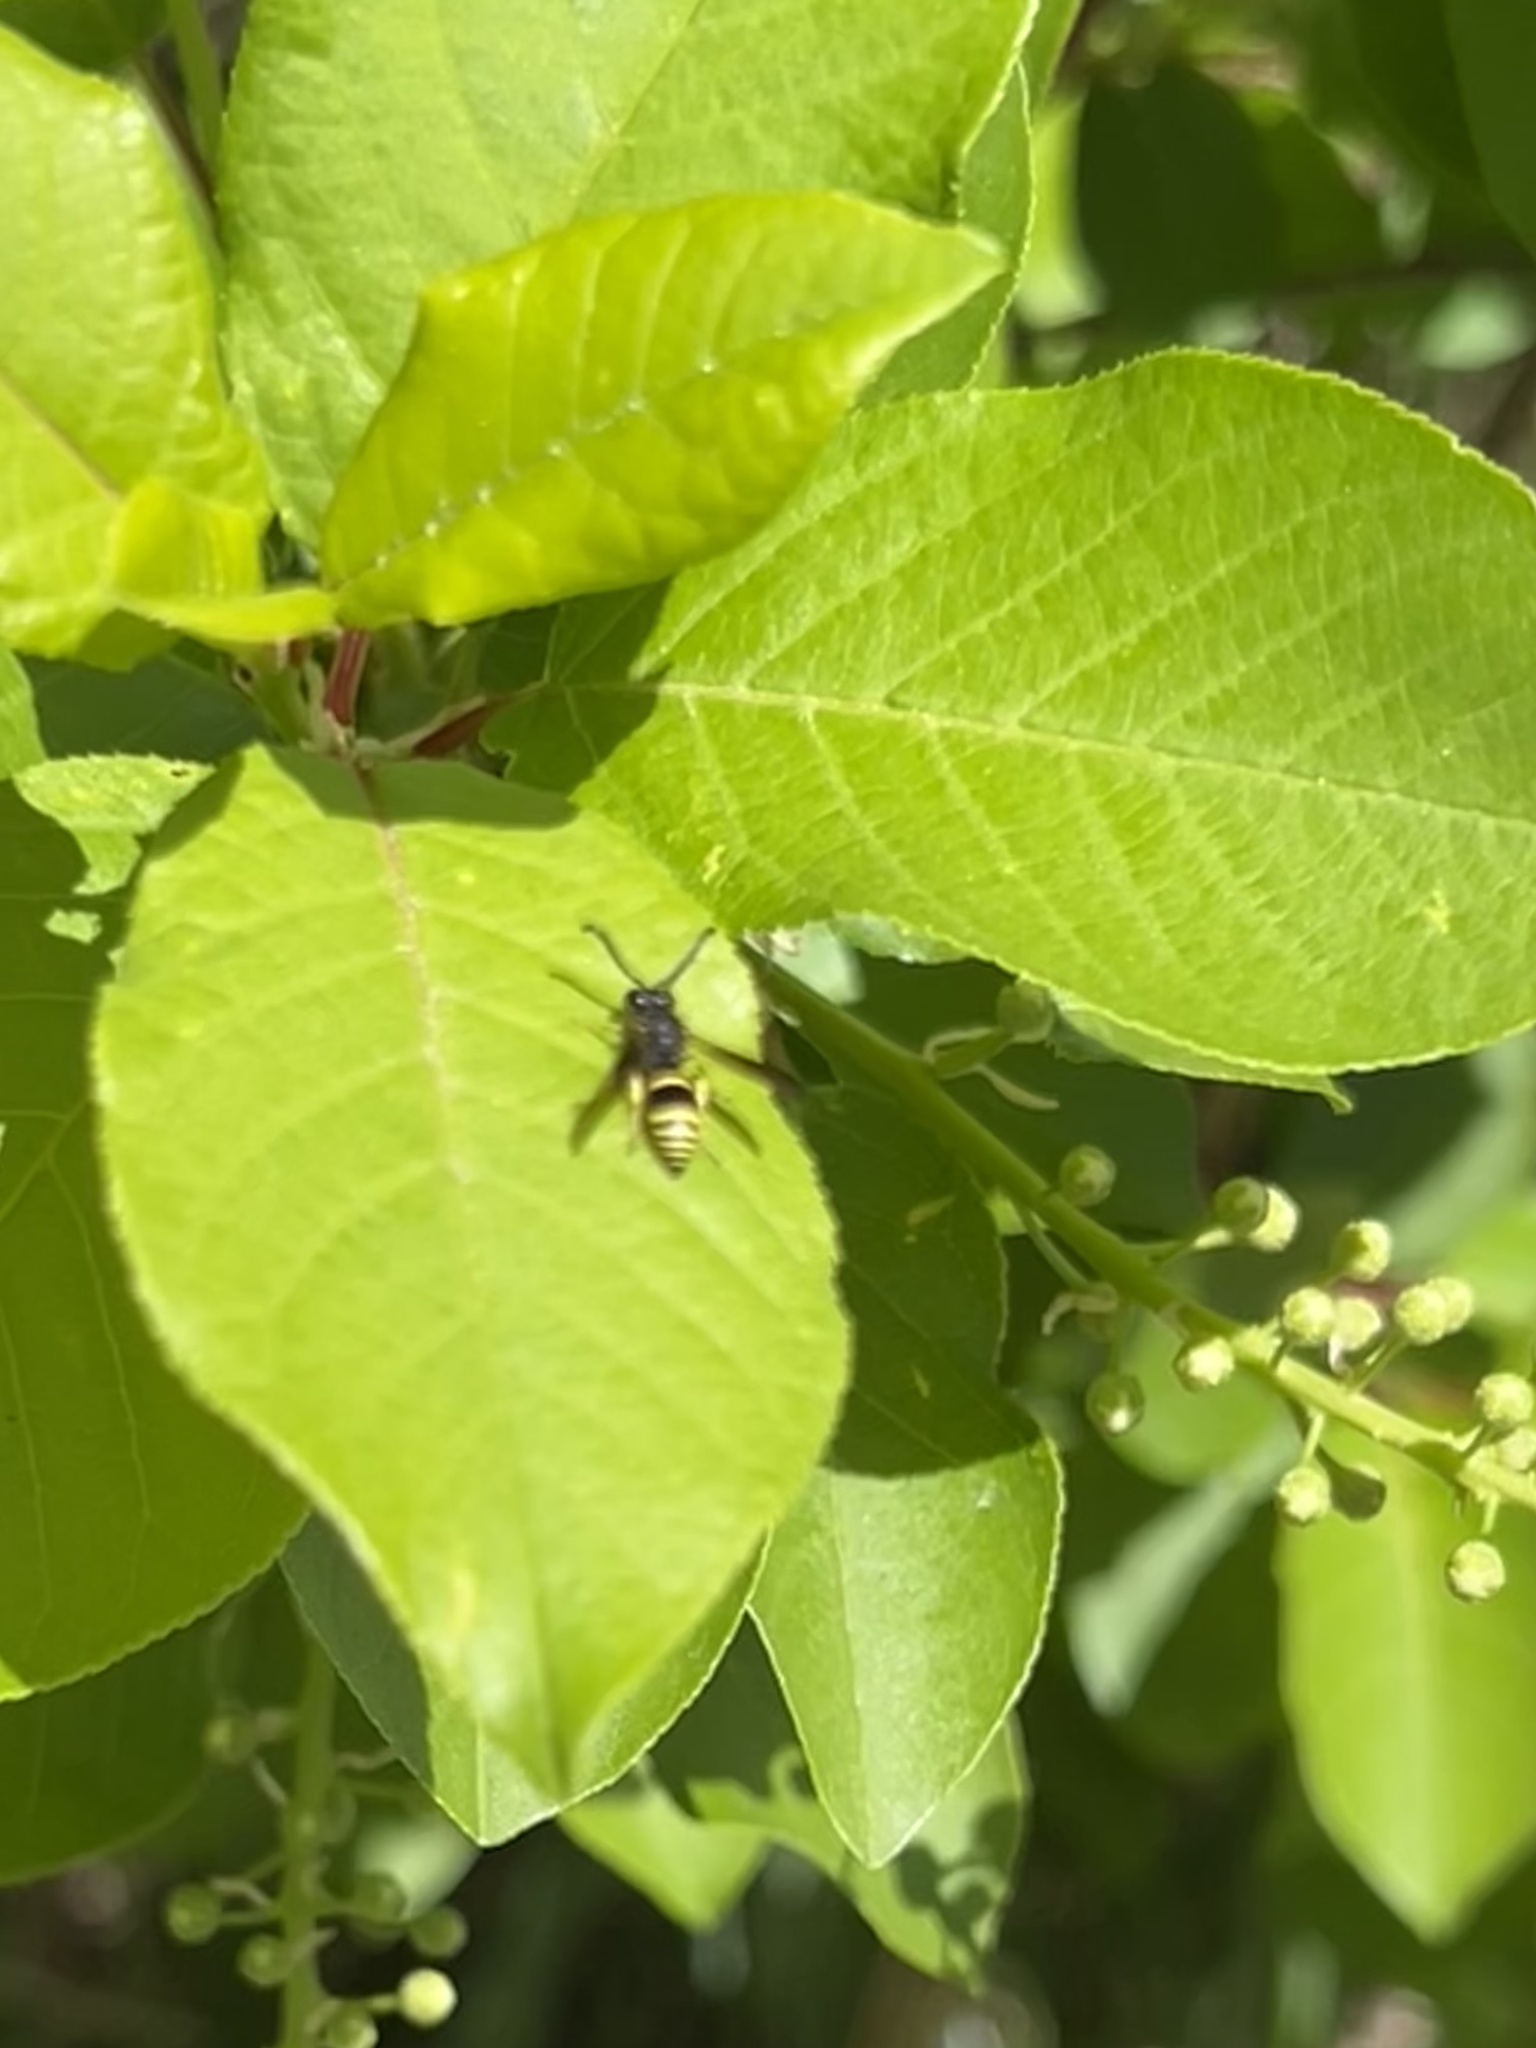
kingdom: Animalia
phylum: Arthropoda
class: Insecta
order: Hymenoptera
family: Vespidae
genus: Ancistrocerus
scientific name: Ancistrocerus
